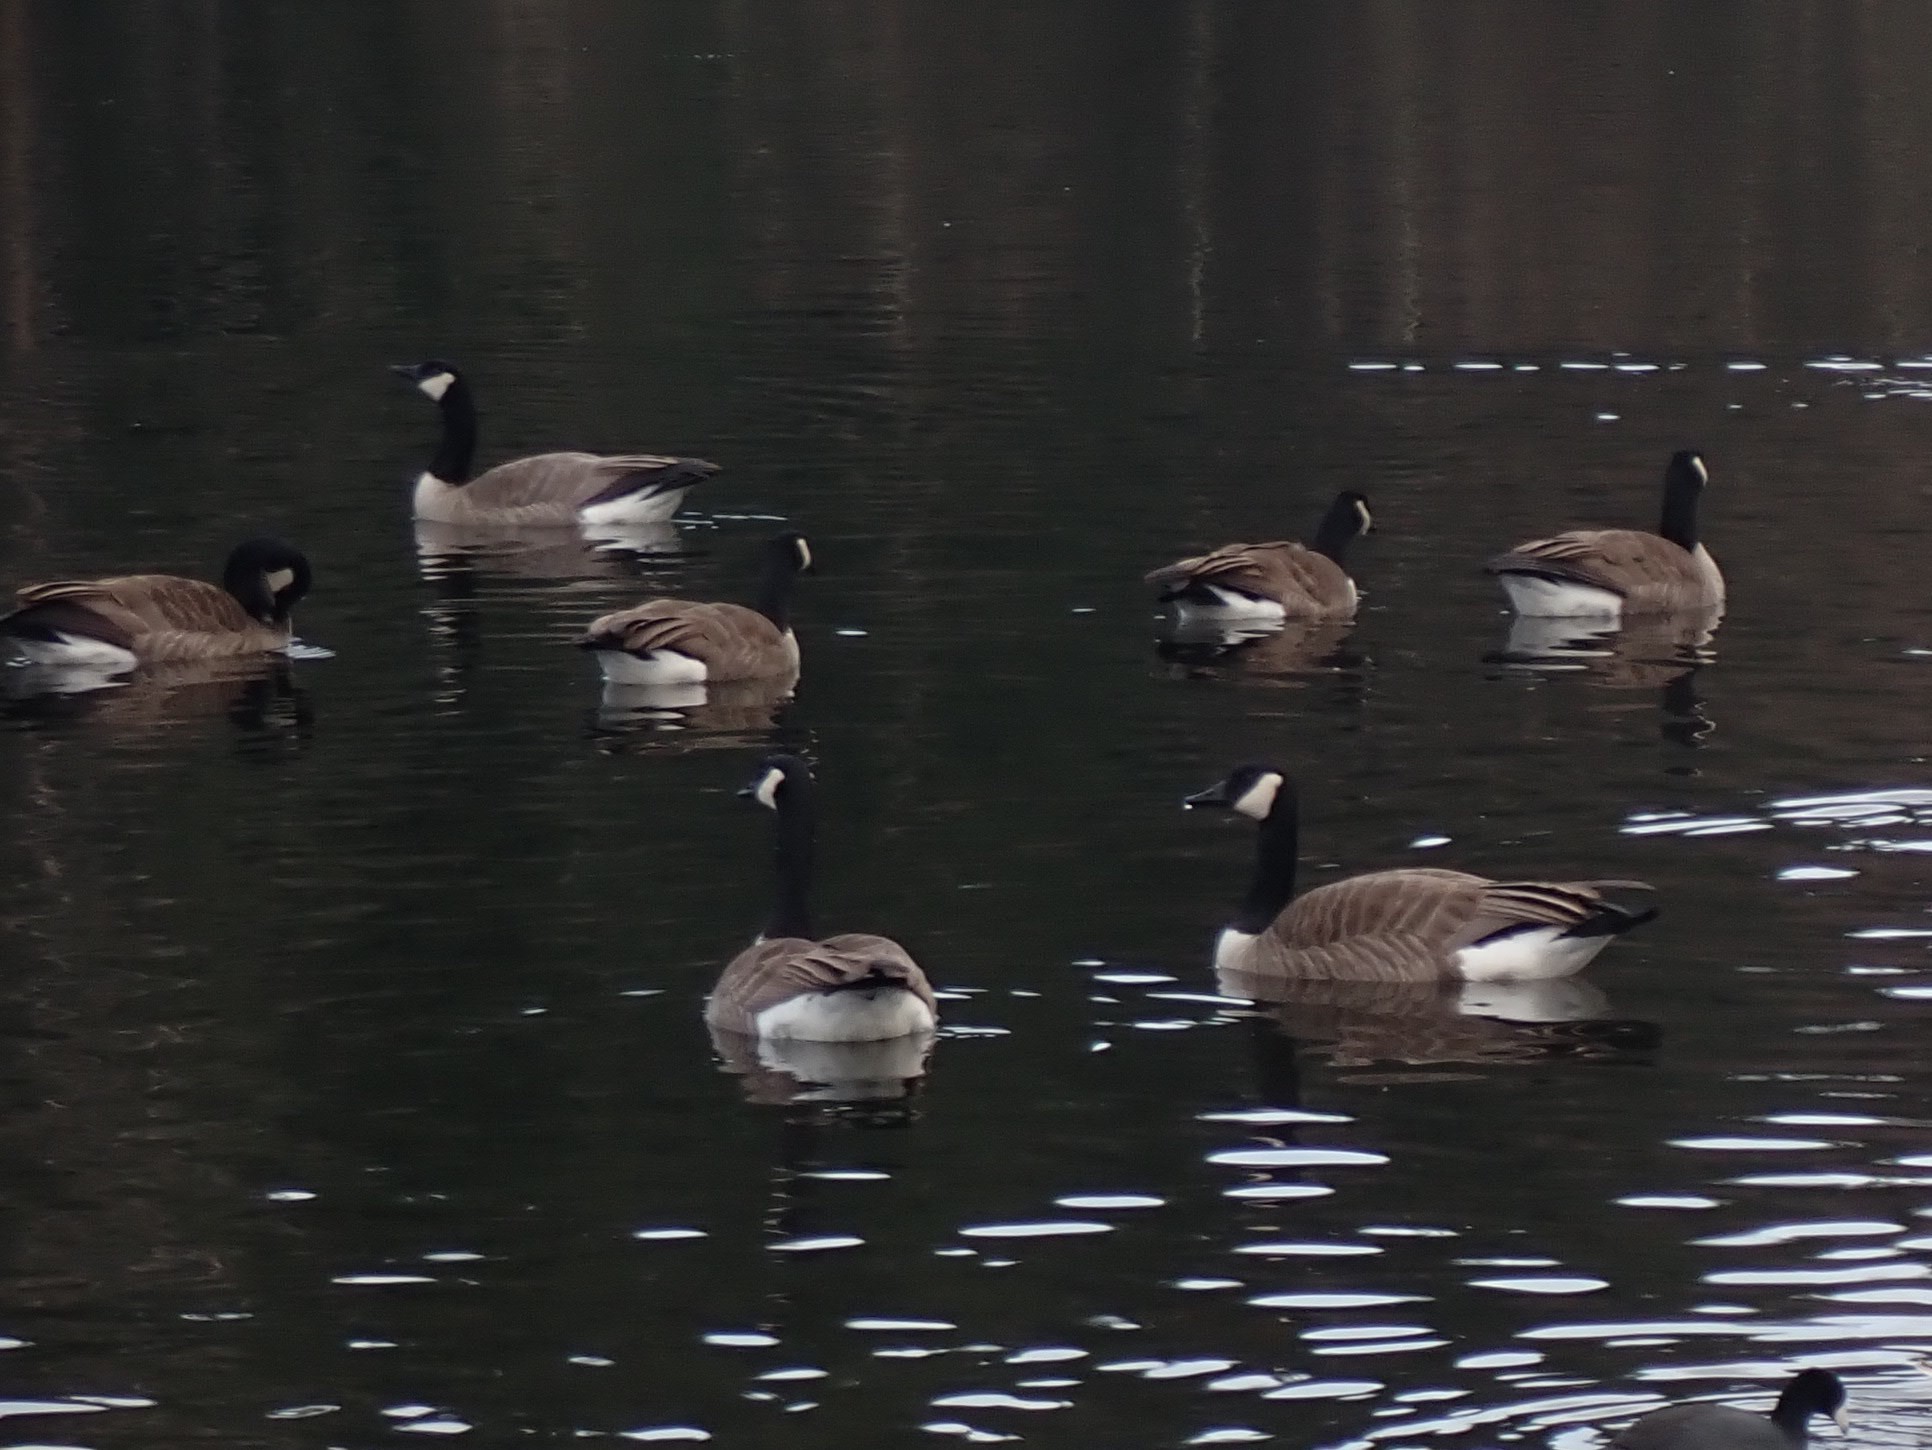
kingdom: Animalia
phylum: Chordata
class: Aves
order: Anseriformes
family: Anatidae
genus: Branta
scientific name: Branta canadensis
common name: Canada goose
